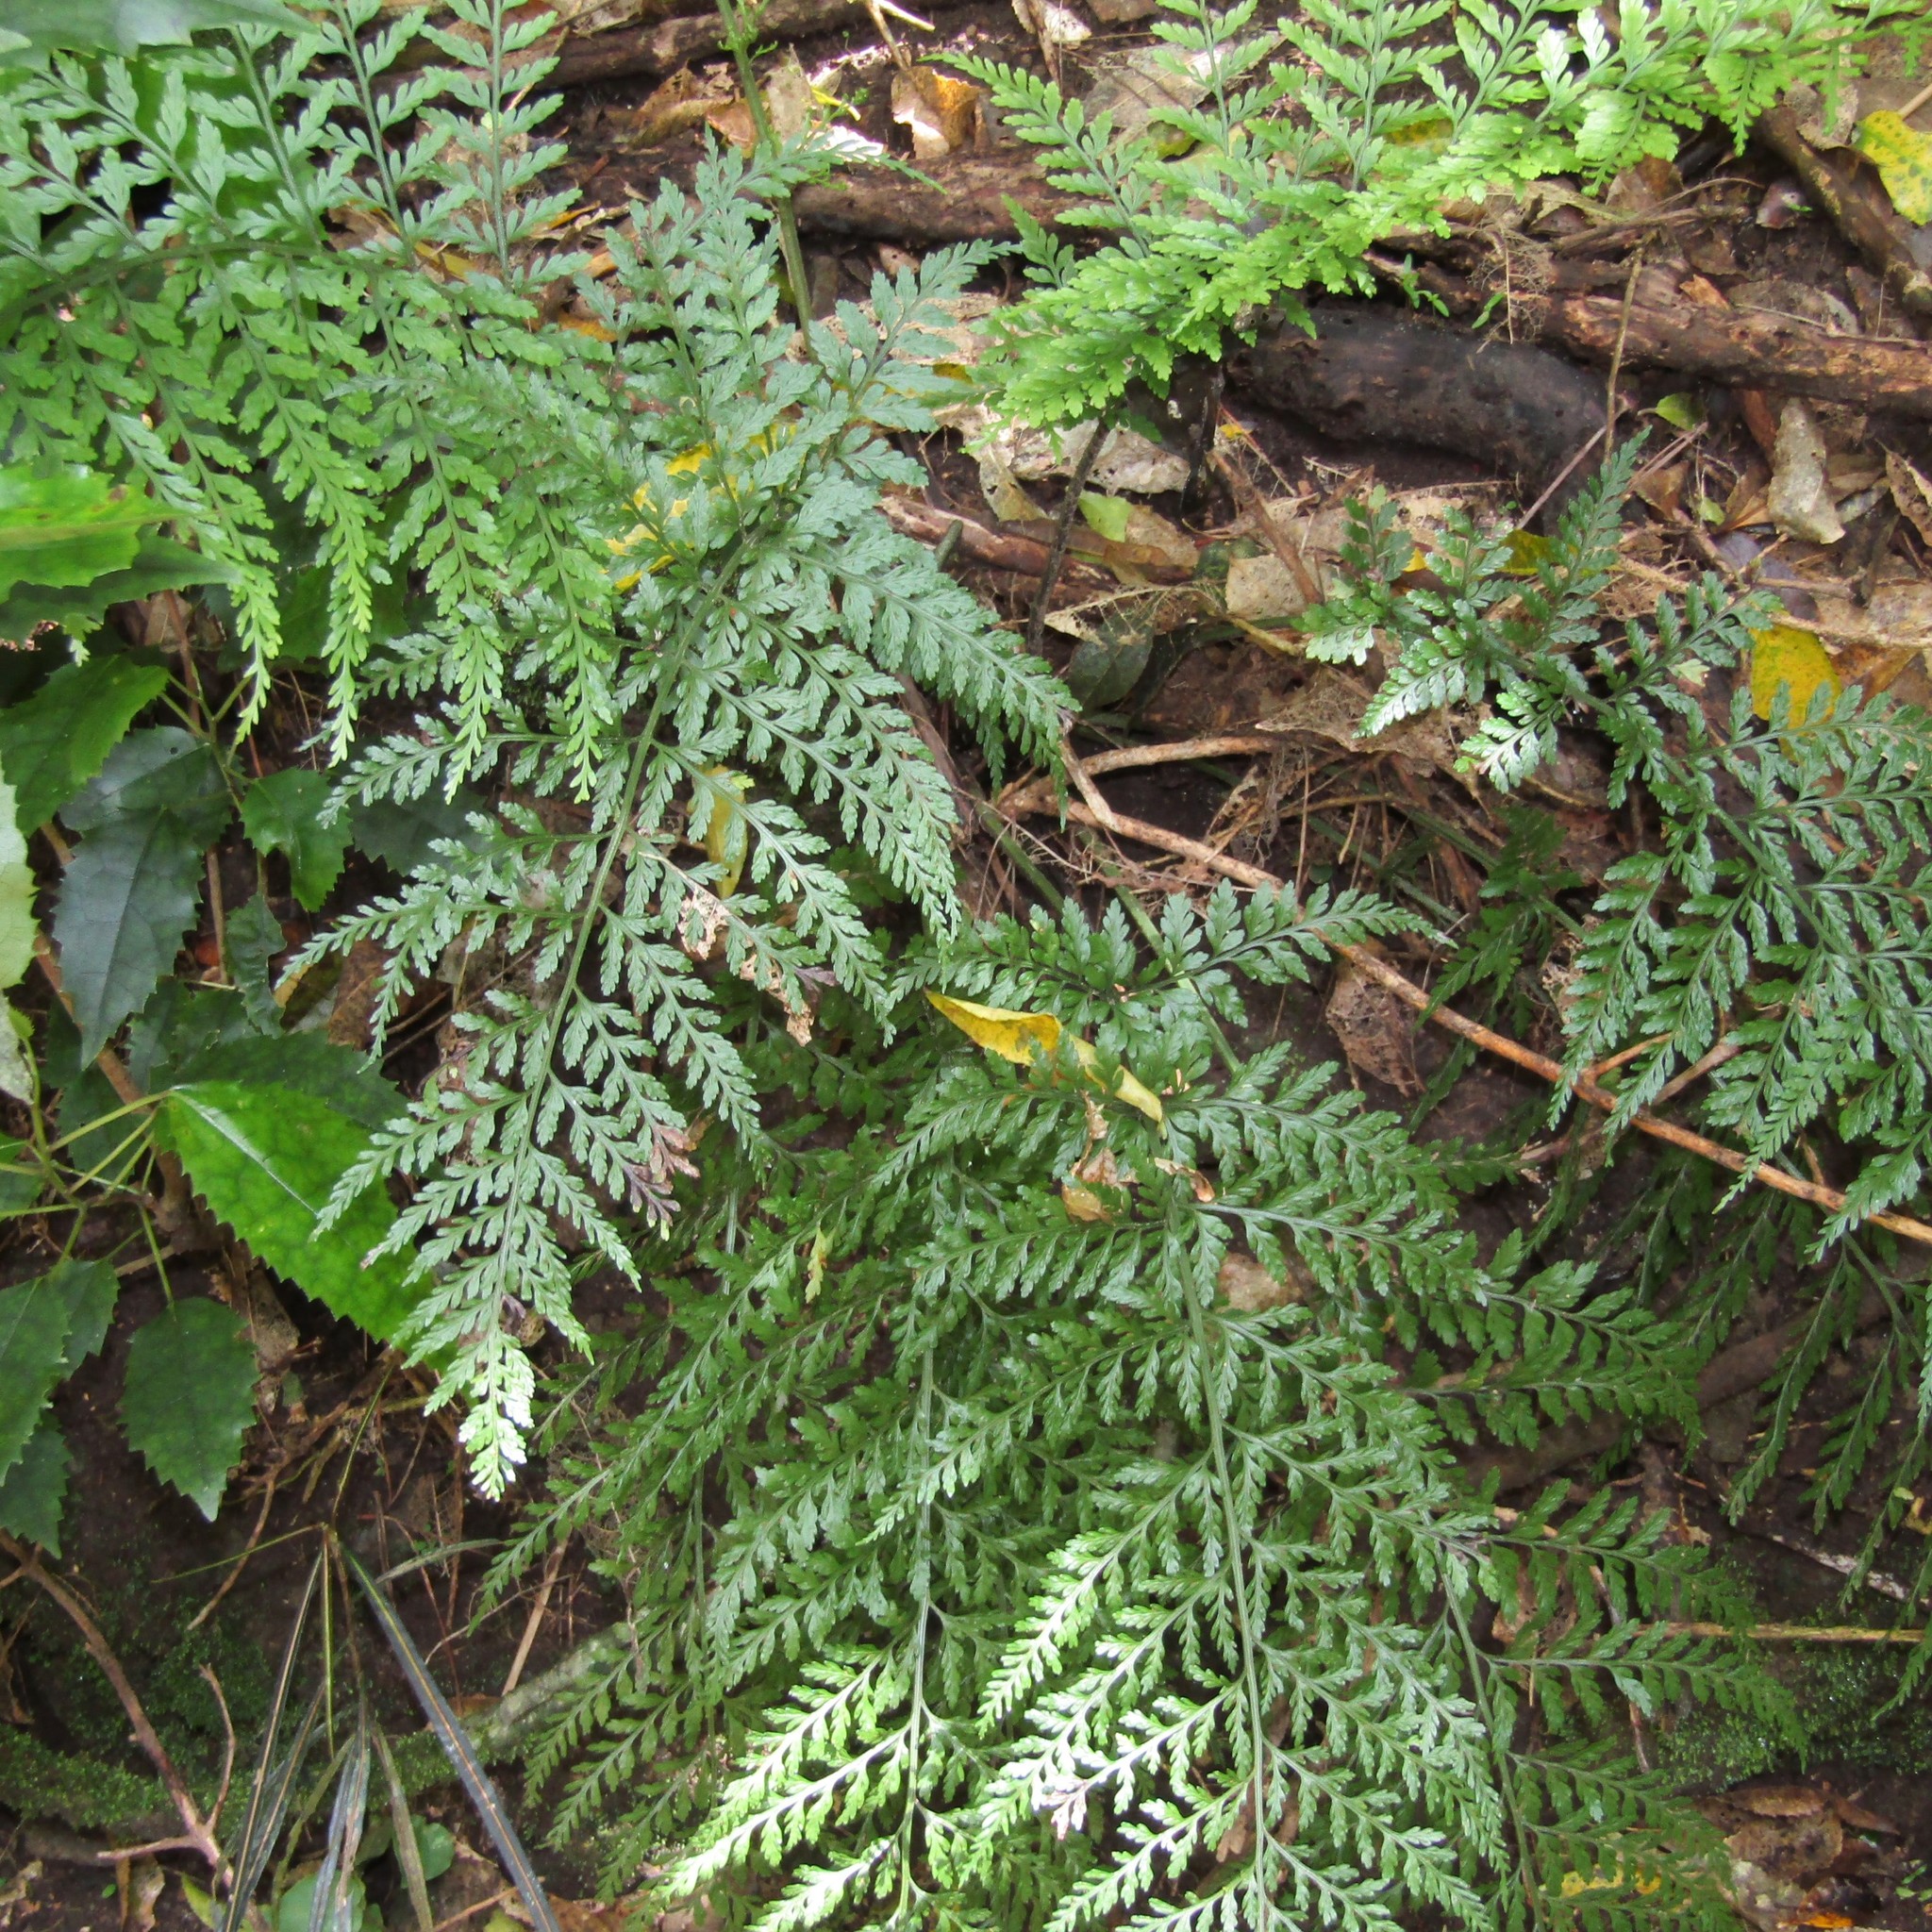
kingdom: Plantae
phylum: Tracheophyta
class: Polypodiopsida
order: Polypodiales
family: Aspleniaceae
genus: Asplenium
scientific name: Asplenium
